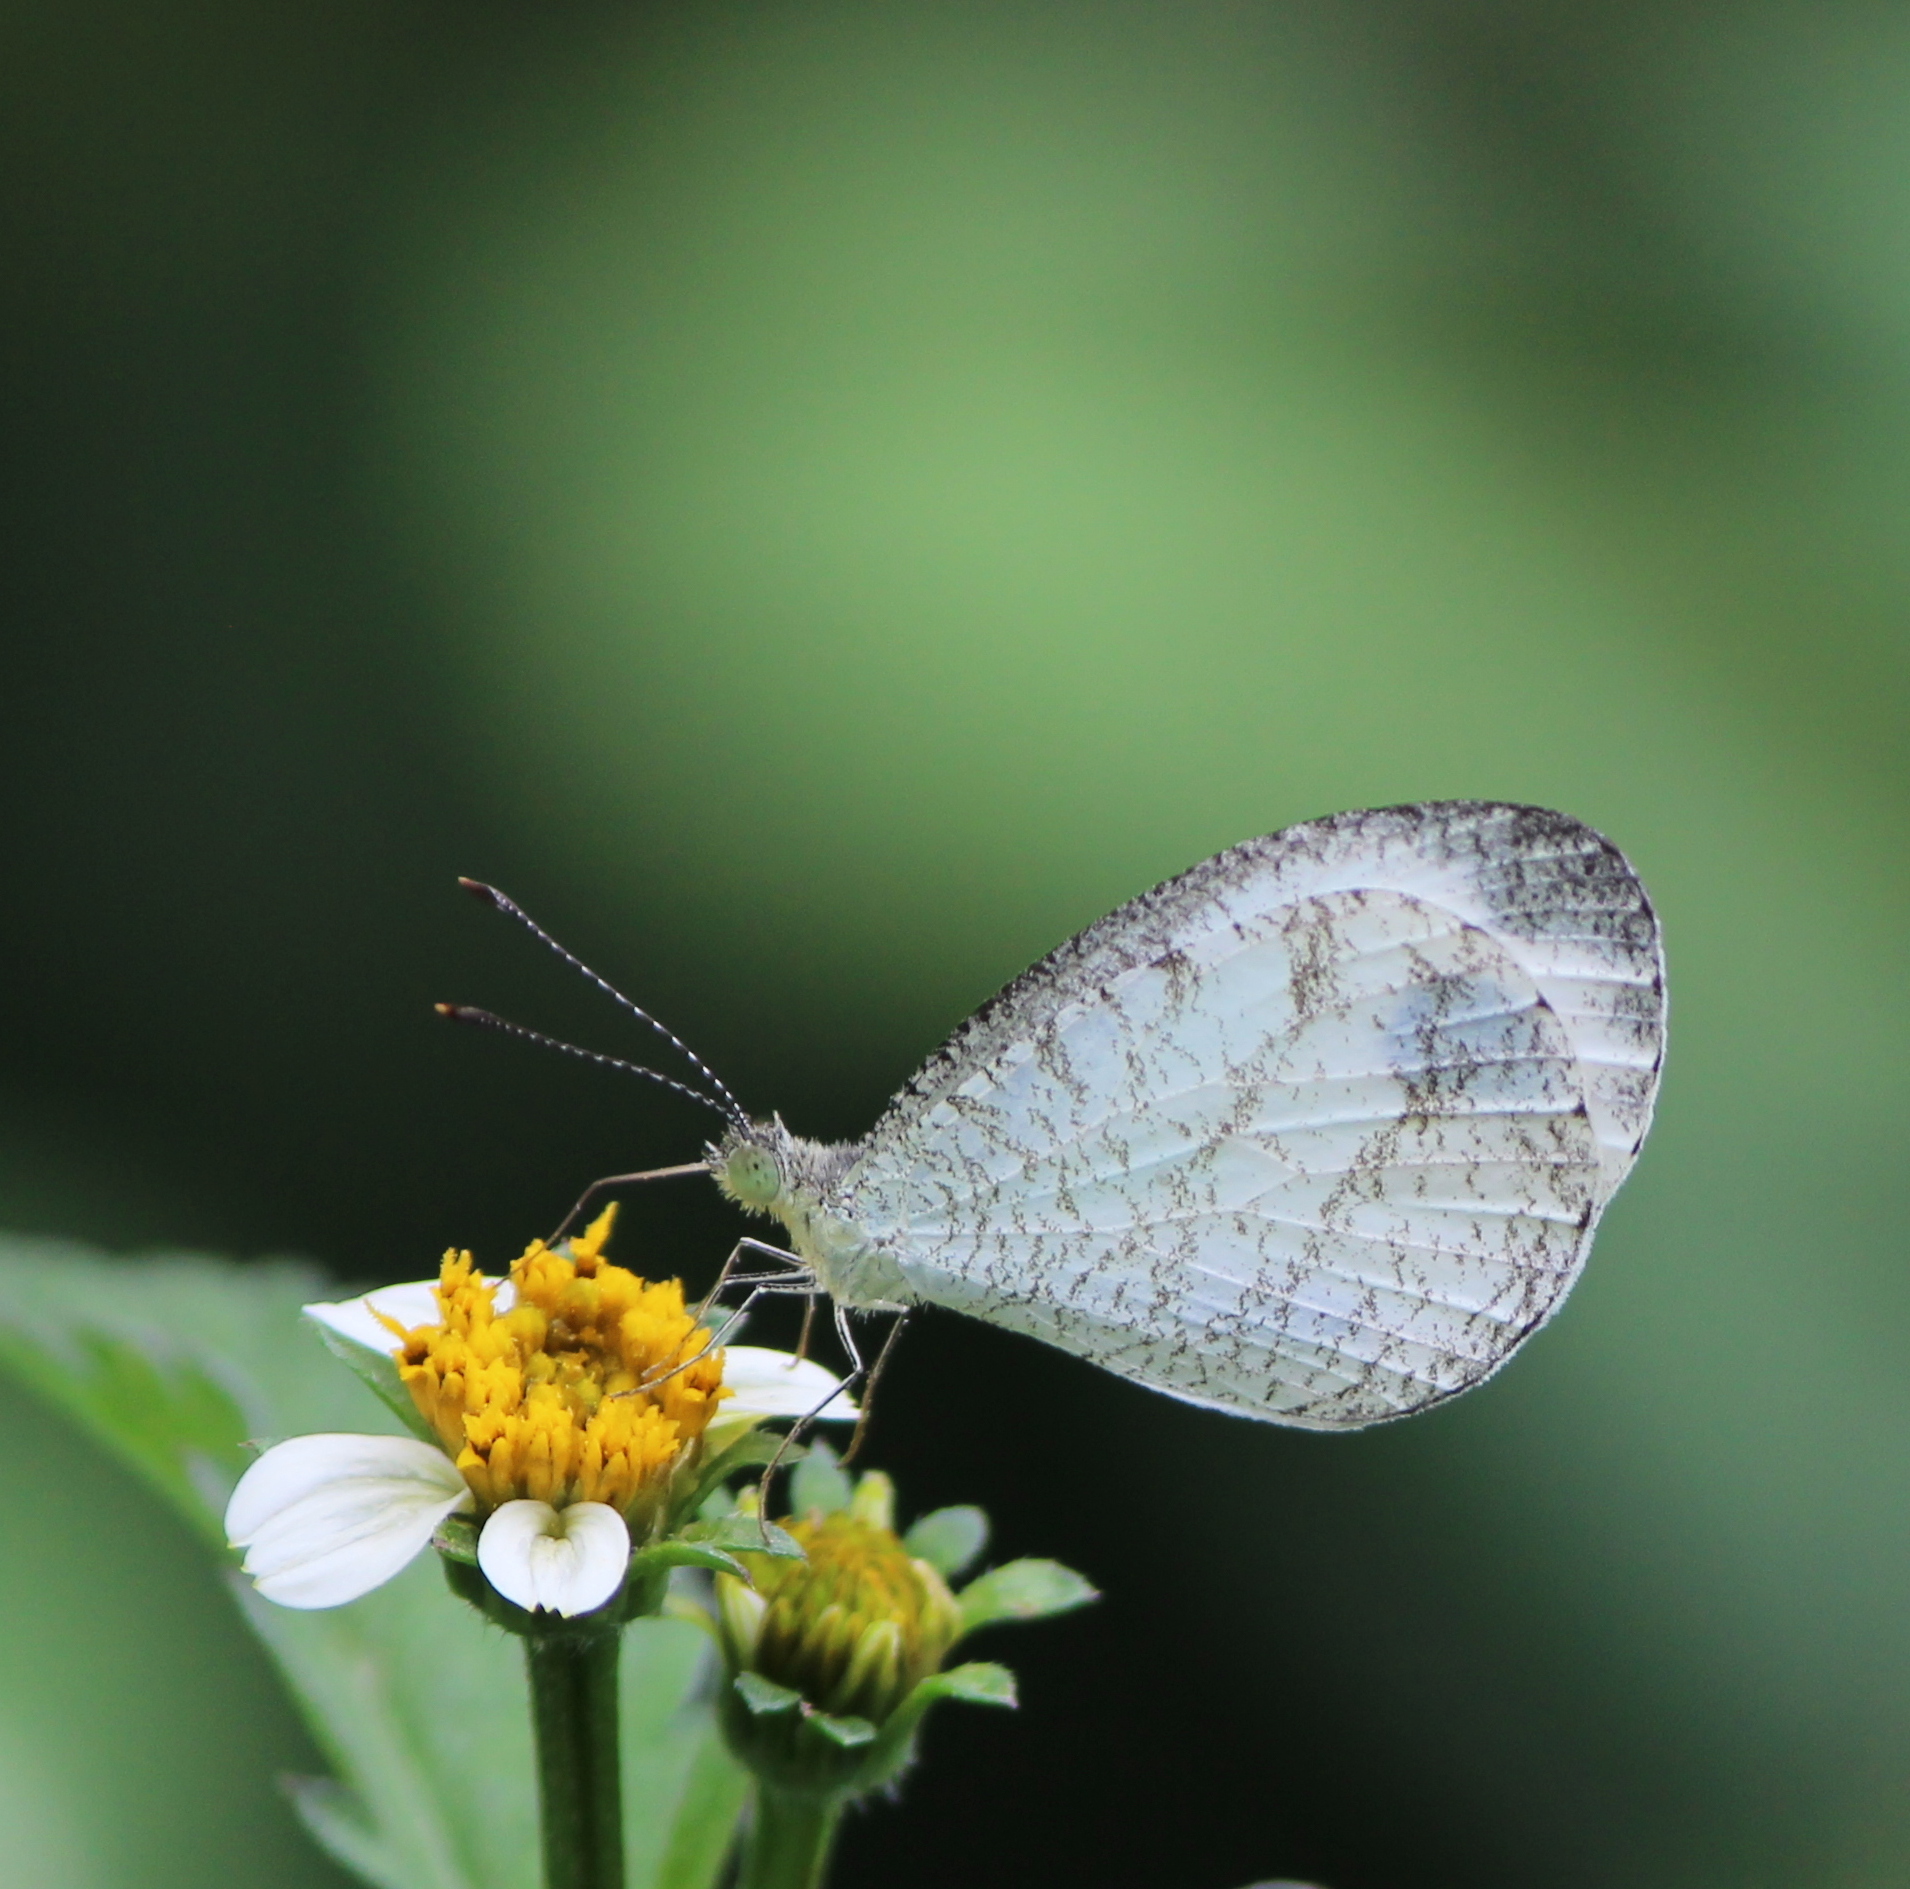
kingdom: Animalia
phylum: Arthropoda
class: Insecta
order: Lepidoptera
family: Pieridae
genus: Leptosia
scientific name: Leptosia nina
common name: Psyche
